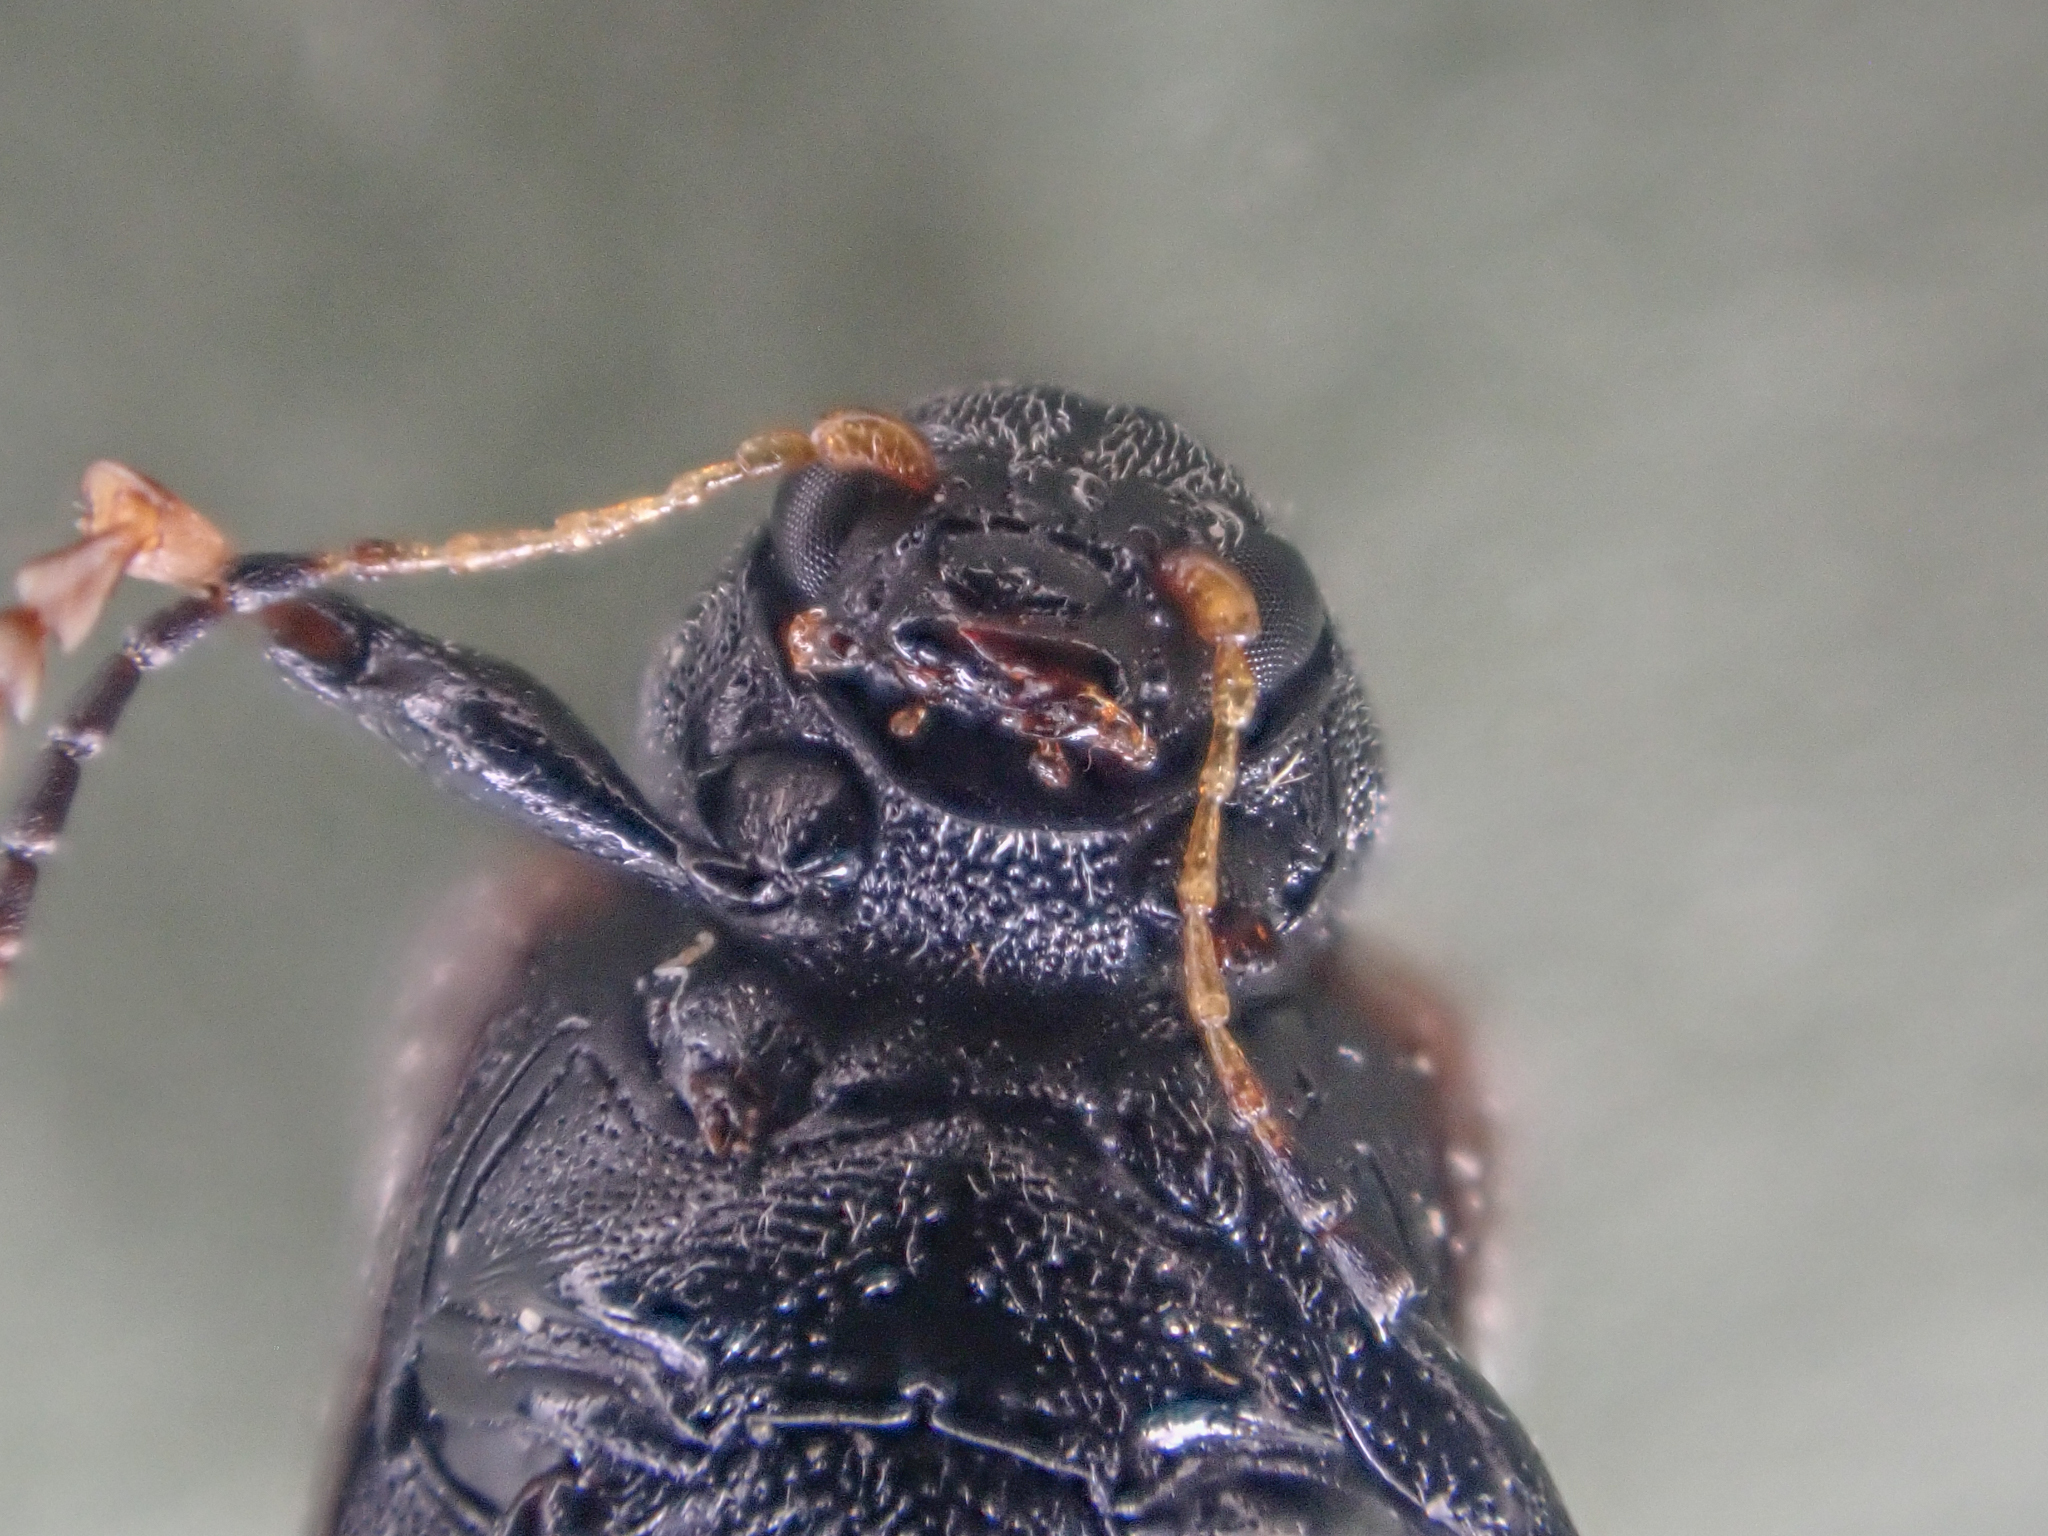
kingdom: Animalia
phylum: Arthropoda
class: Insecta
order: Coleoptera
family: Chrysomelidae
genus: Bromius
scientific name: Bromius obscurus
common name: Western grape rootworm
